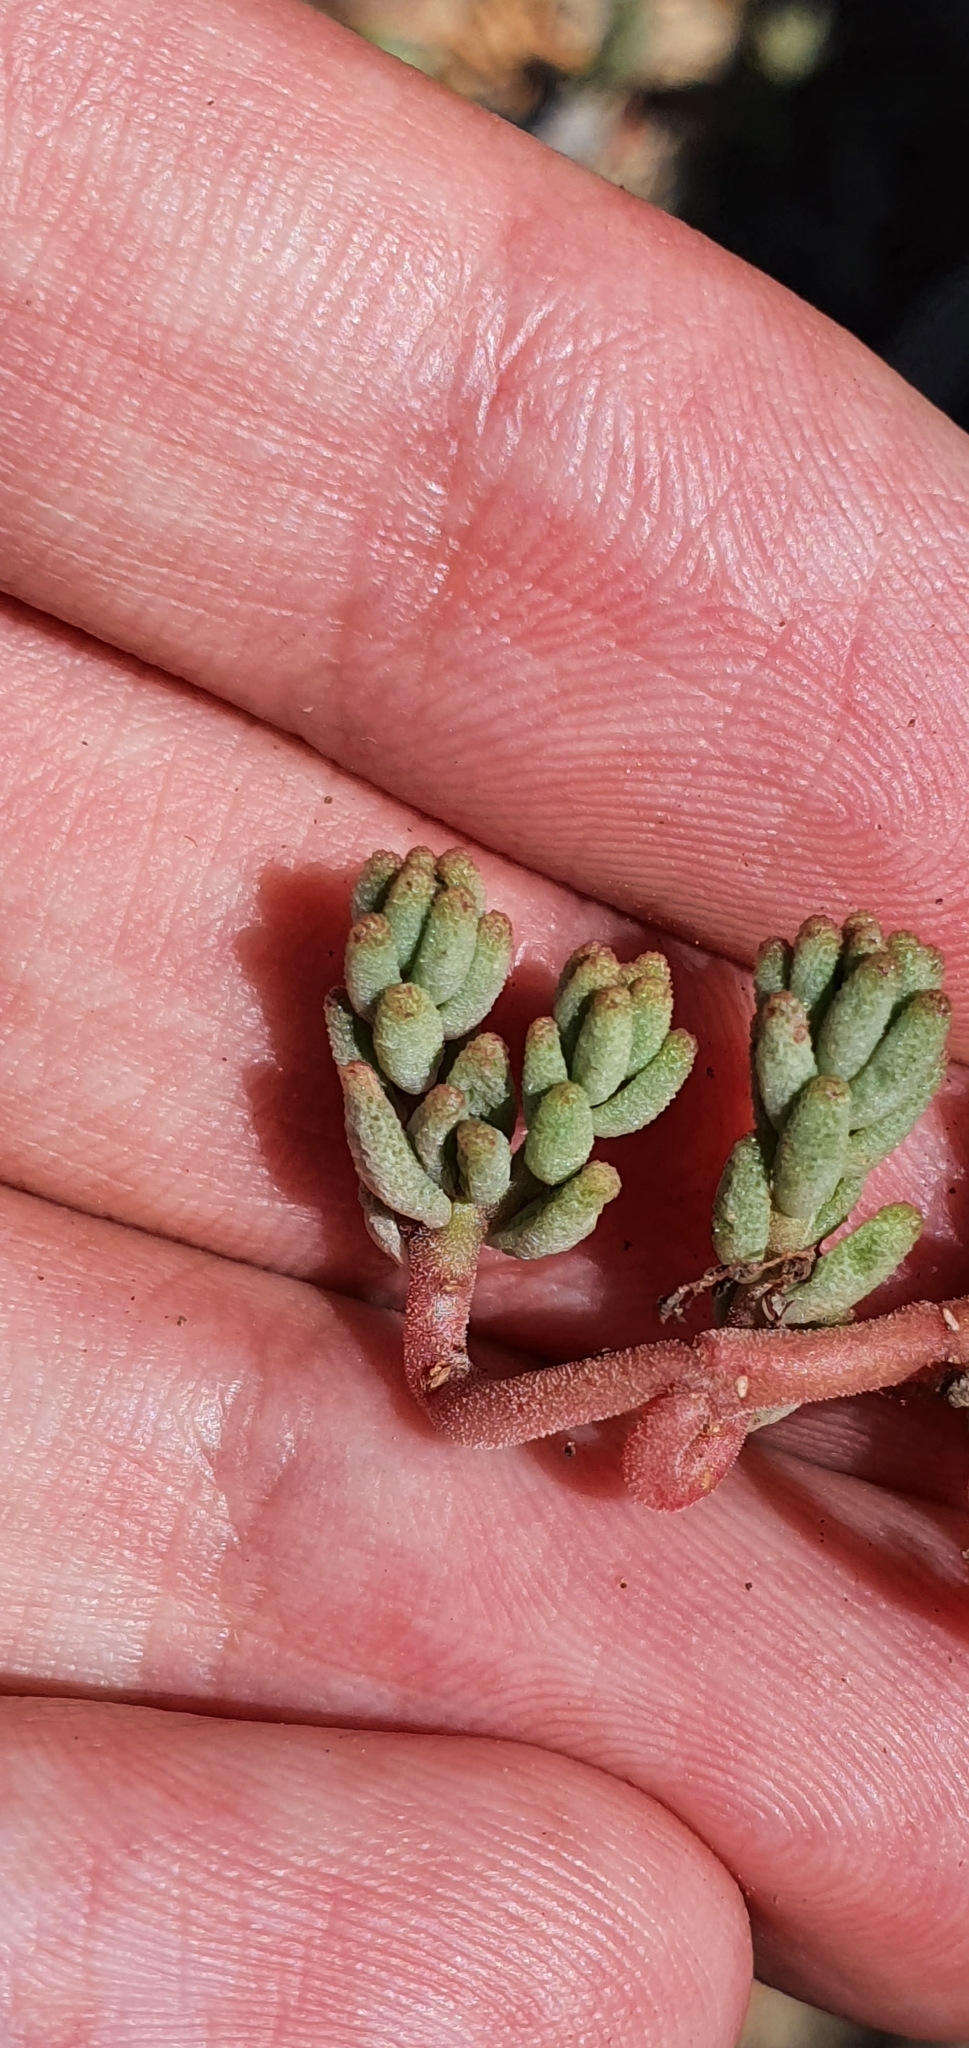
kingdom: Plantae
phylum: Tracheophyta
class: Magnoliopsida
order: Saxifragales
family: Crassulaceae
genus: Sedum
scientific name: Sedum album
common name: White stonecrop
